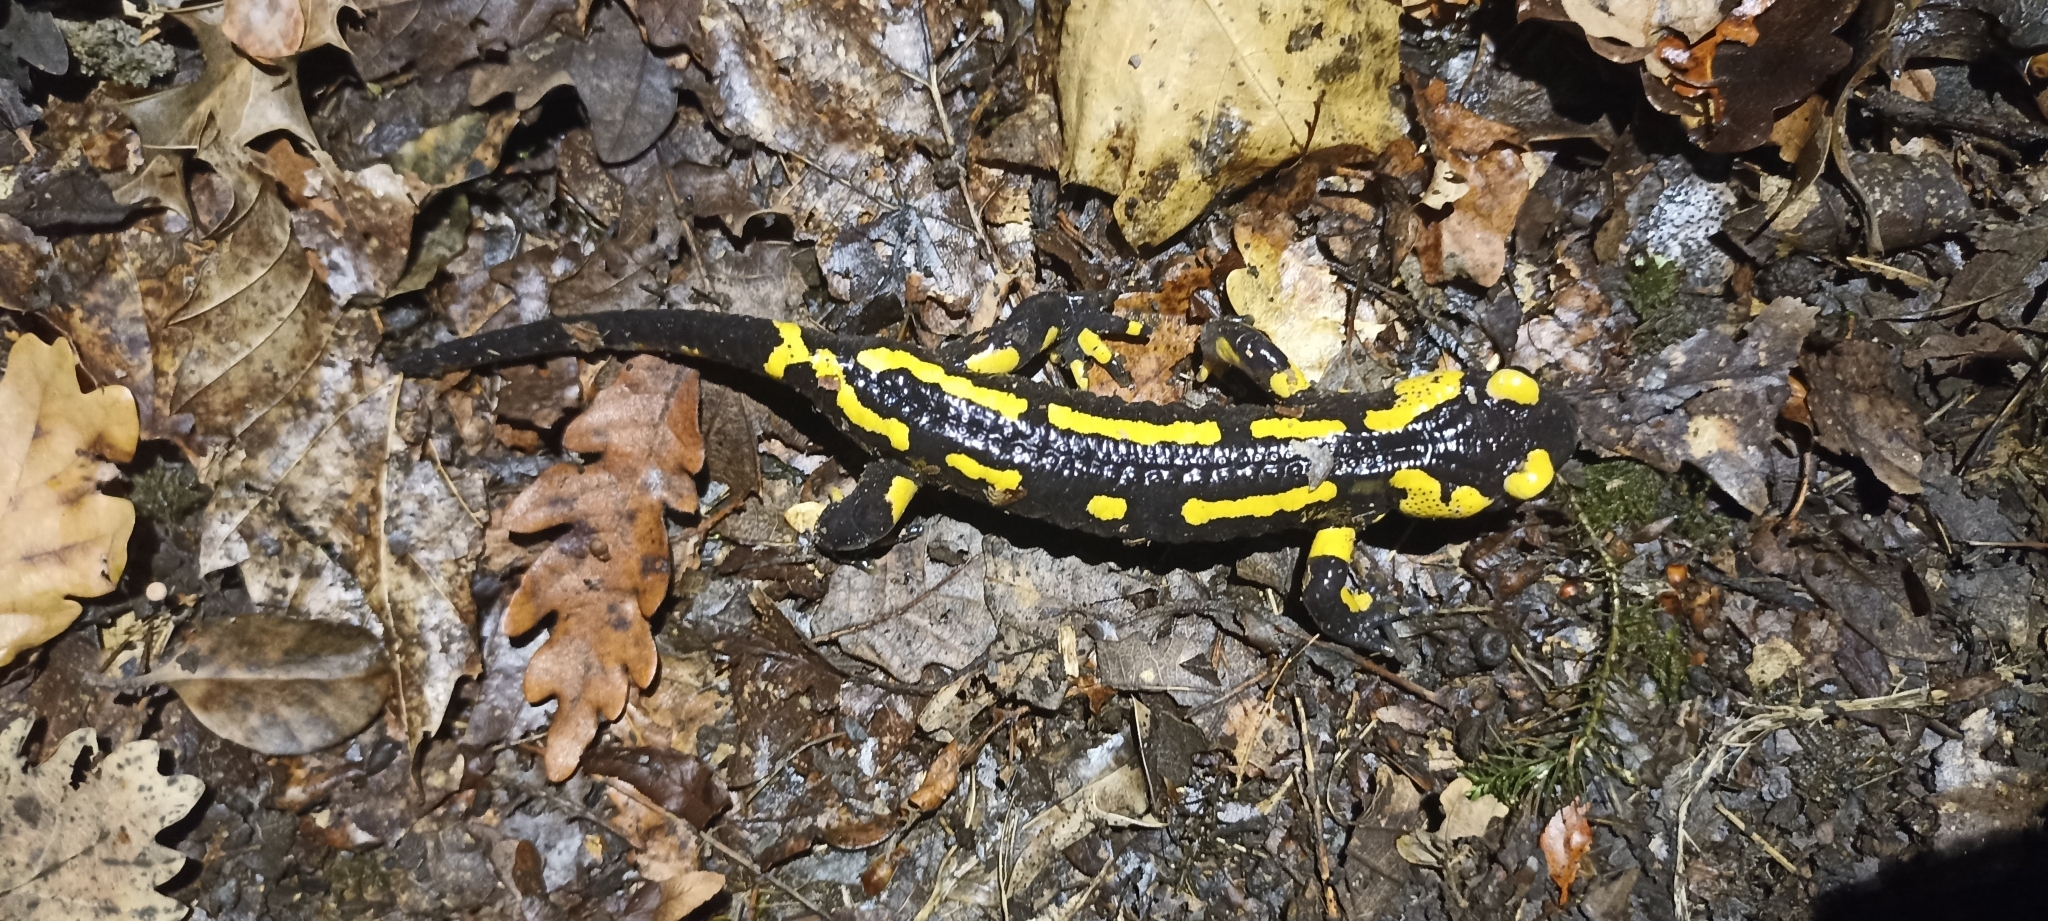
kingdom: Animalia
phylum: Chordata
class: Amphibia
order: Caudata
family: Salamandridae
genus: Salamandra
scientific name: Salamandra salamandra
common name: Fire salamander
